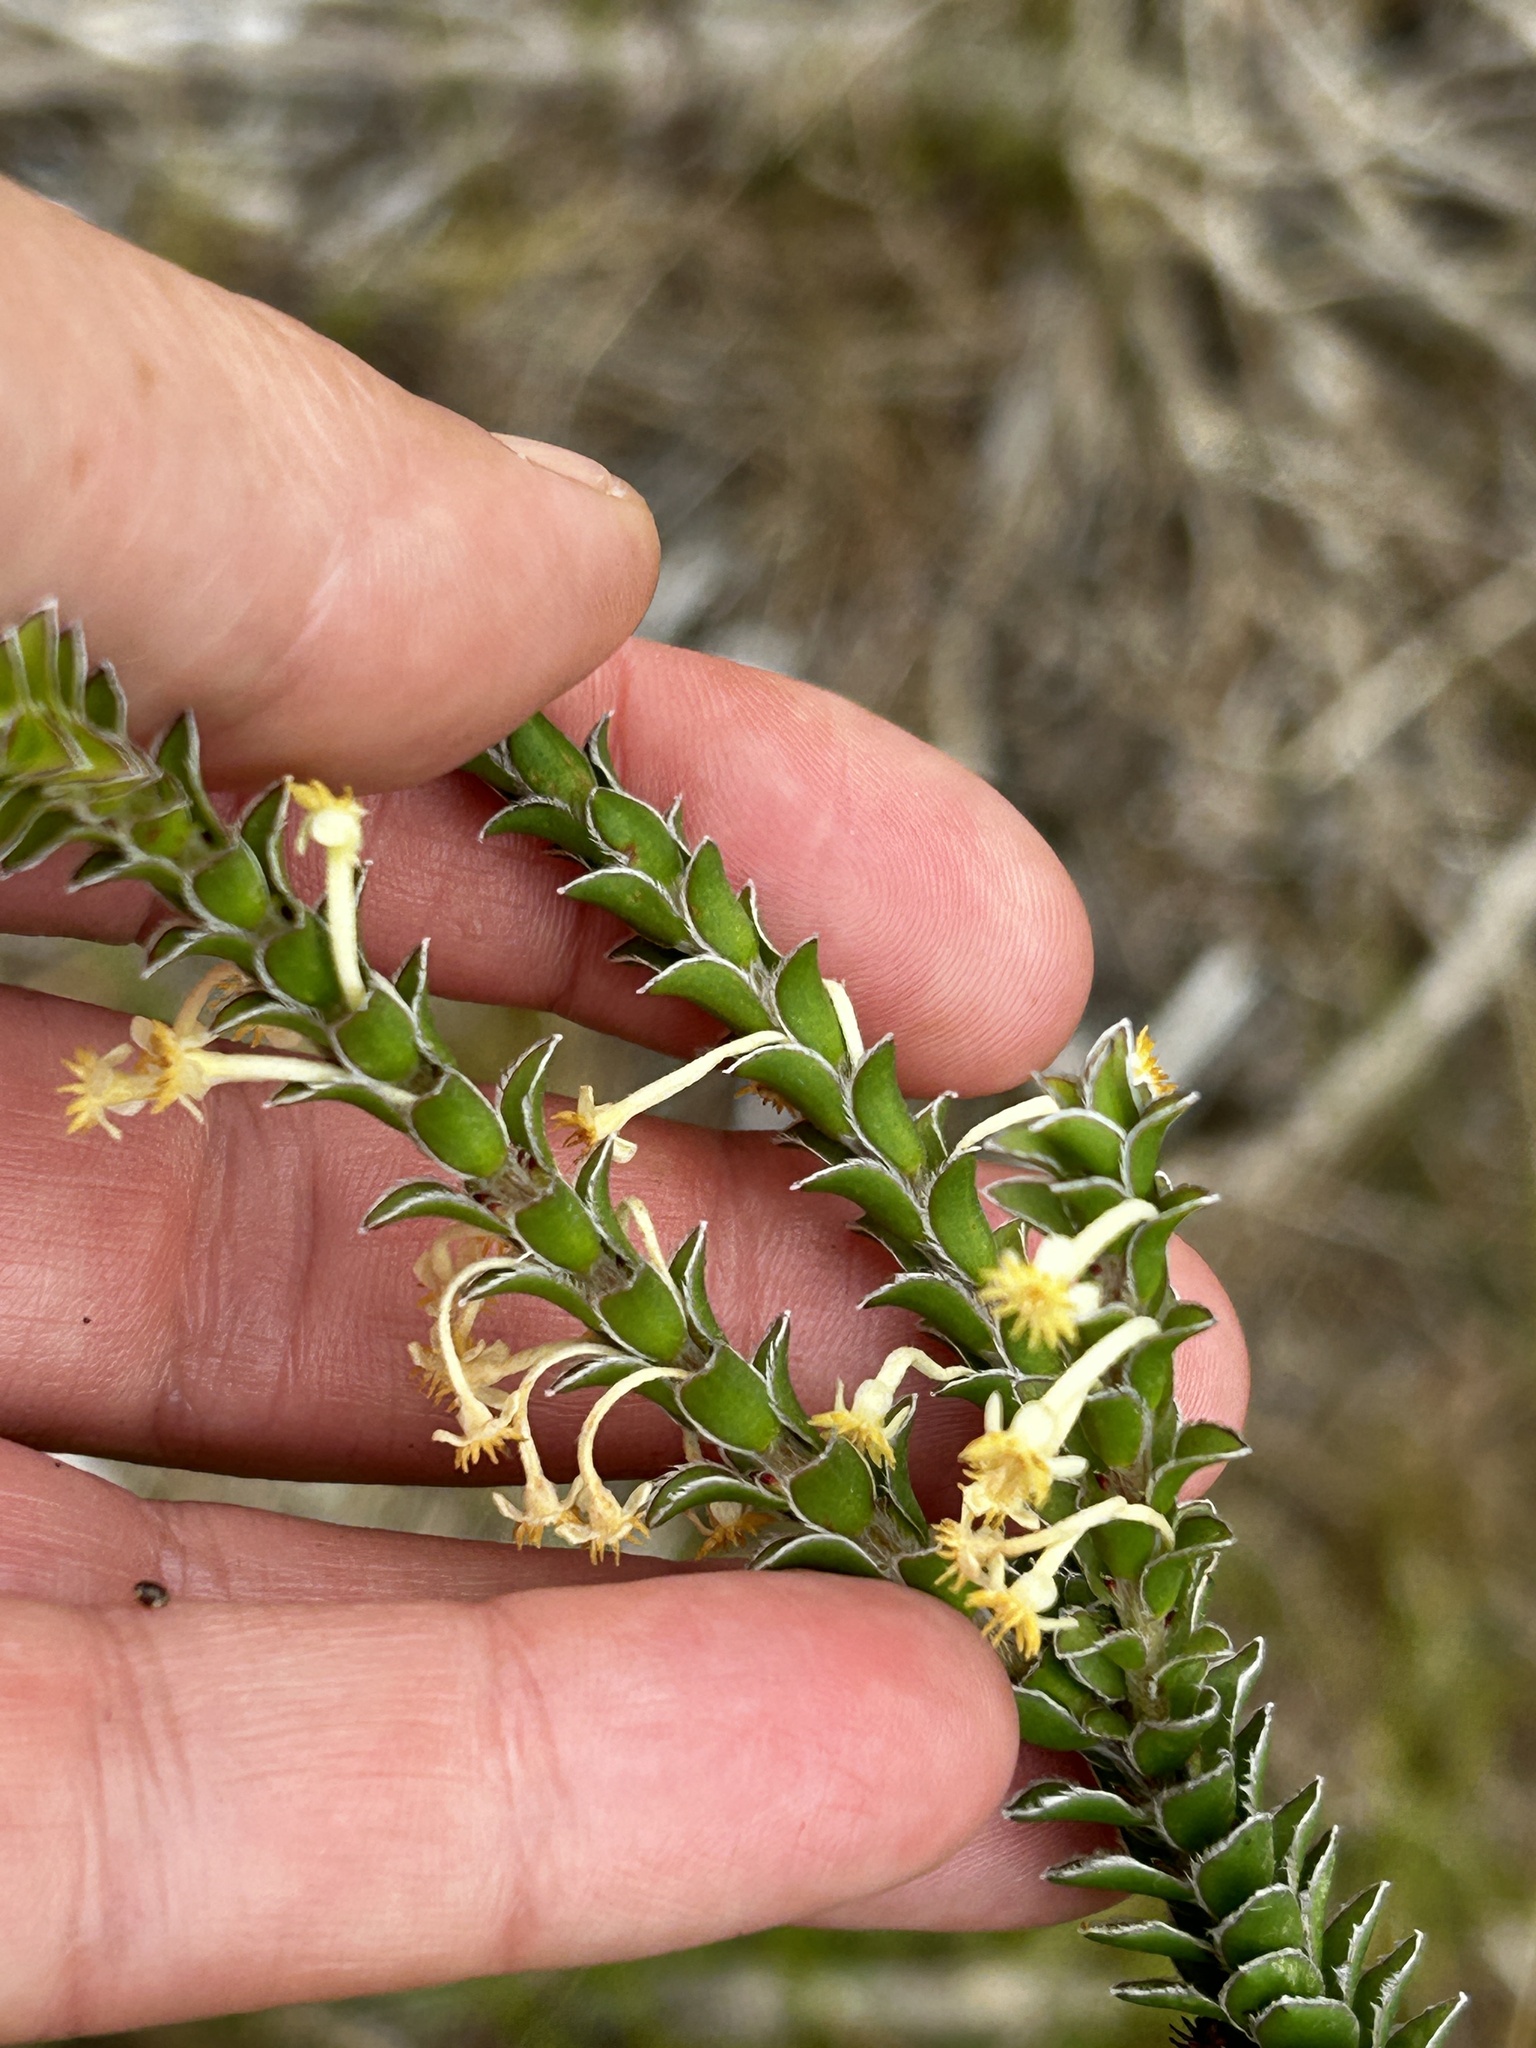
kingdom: Plantae
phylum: Tracheophyta
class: Magnoliopsida
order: Malvales
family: Thymelaeaceae
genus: Struthiola
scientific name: Struthiola argentea
